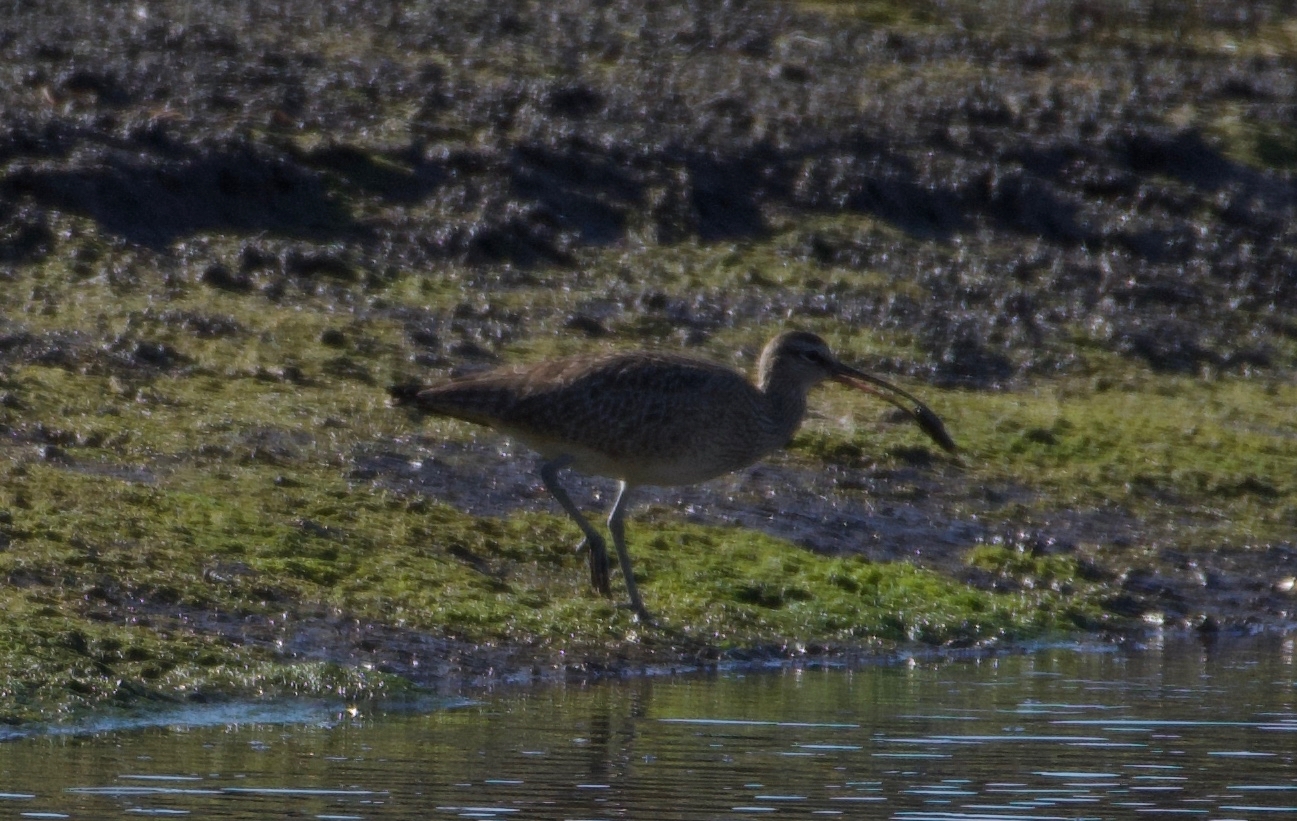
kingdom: Animalia
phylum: Chordata
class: Aves
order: Charadriiformes
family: Scolopacidae
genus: Numenius
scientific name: Numenius phaeopus
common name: Whimbrel
